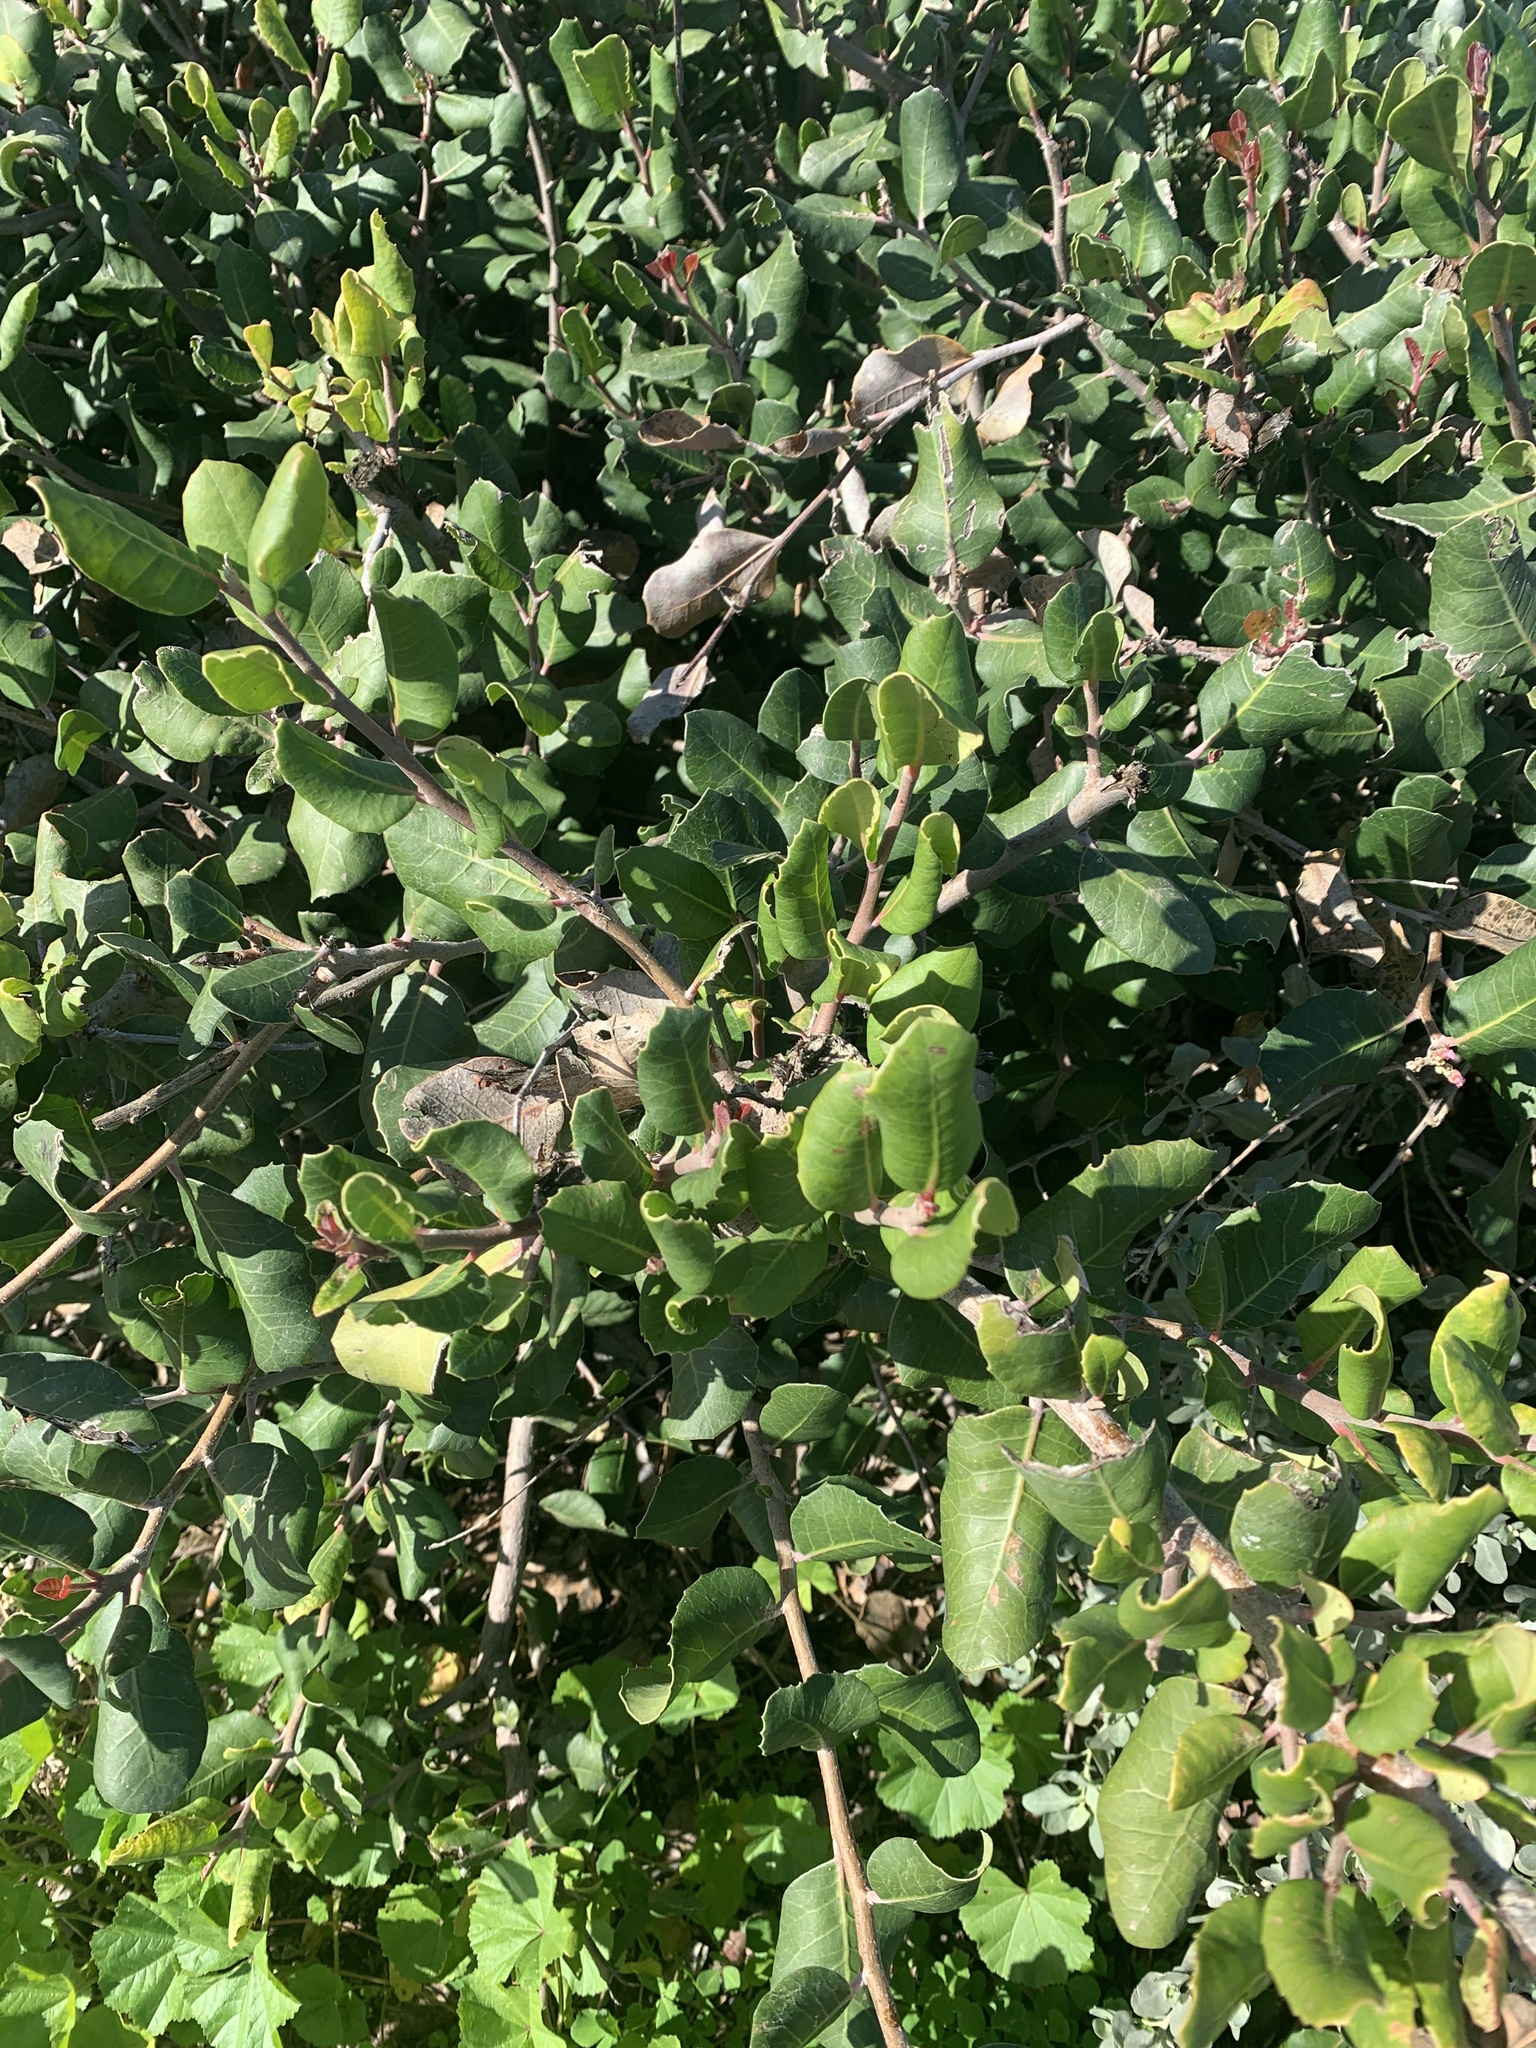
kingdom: Plantae
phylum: Tracheophyta
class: Magnoliopsida
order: Sapindales
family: Anacardiaceae
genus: Rhus
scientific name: Rhus integrifolia
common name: Lemonade sumac
